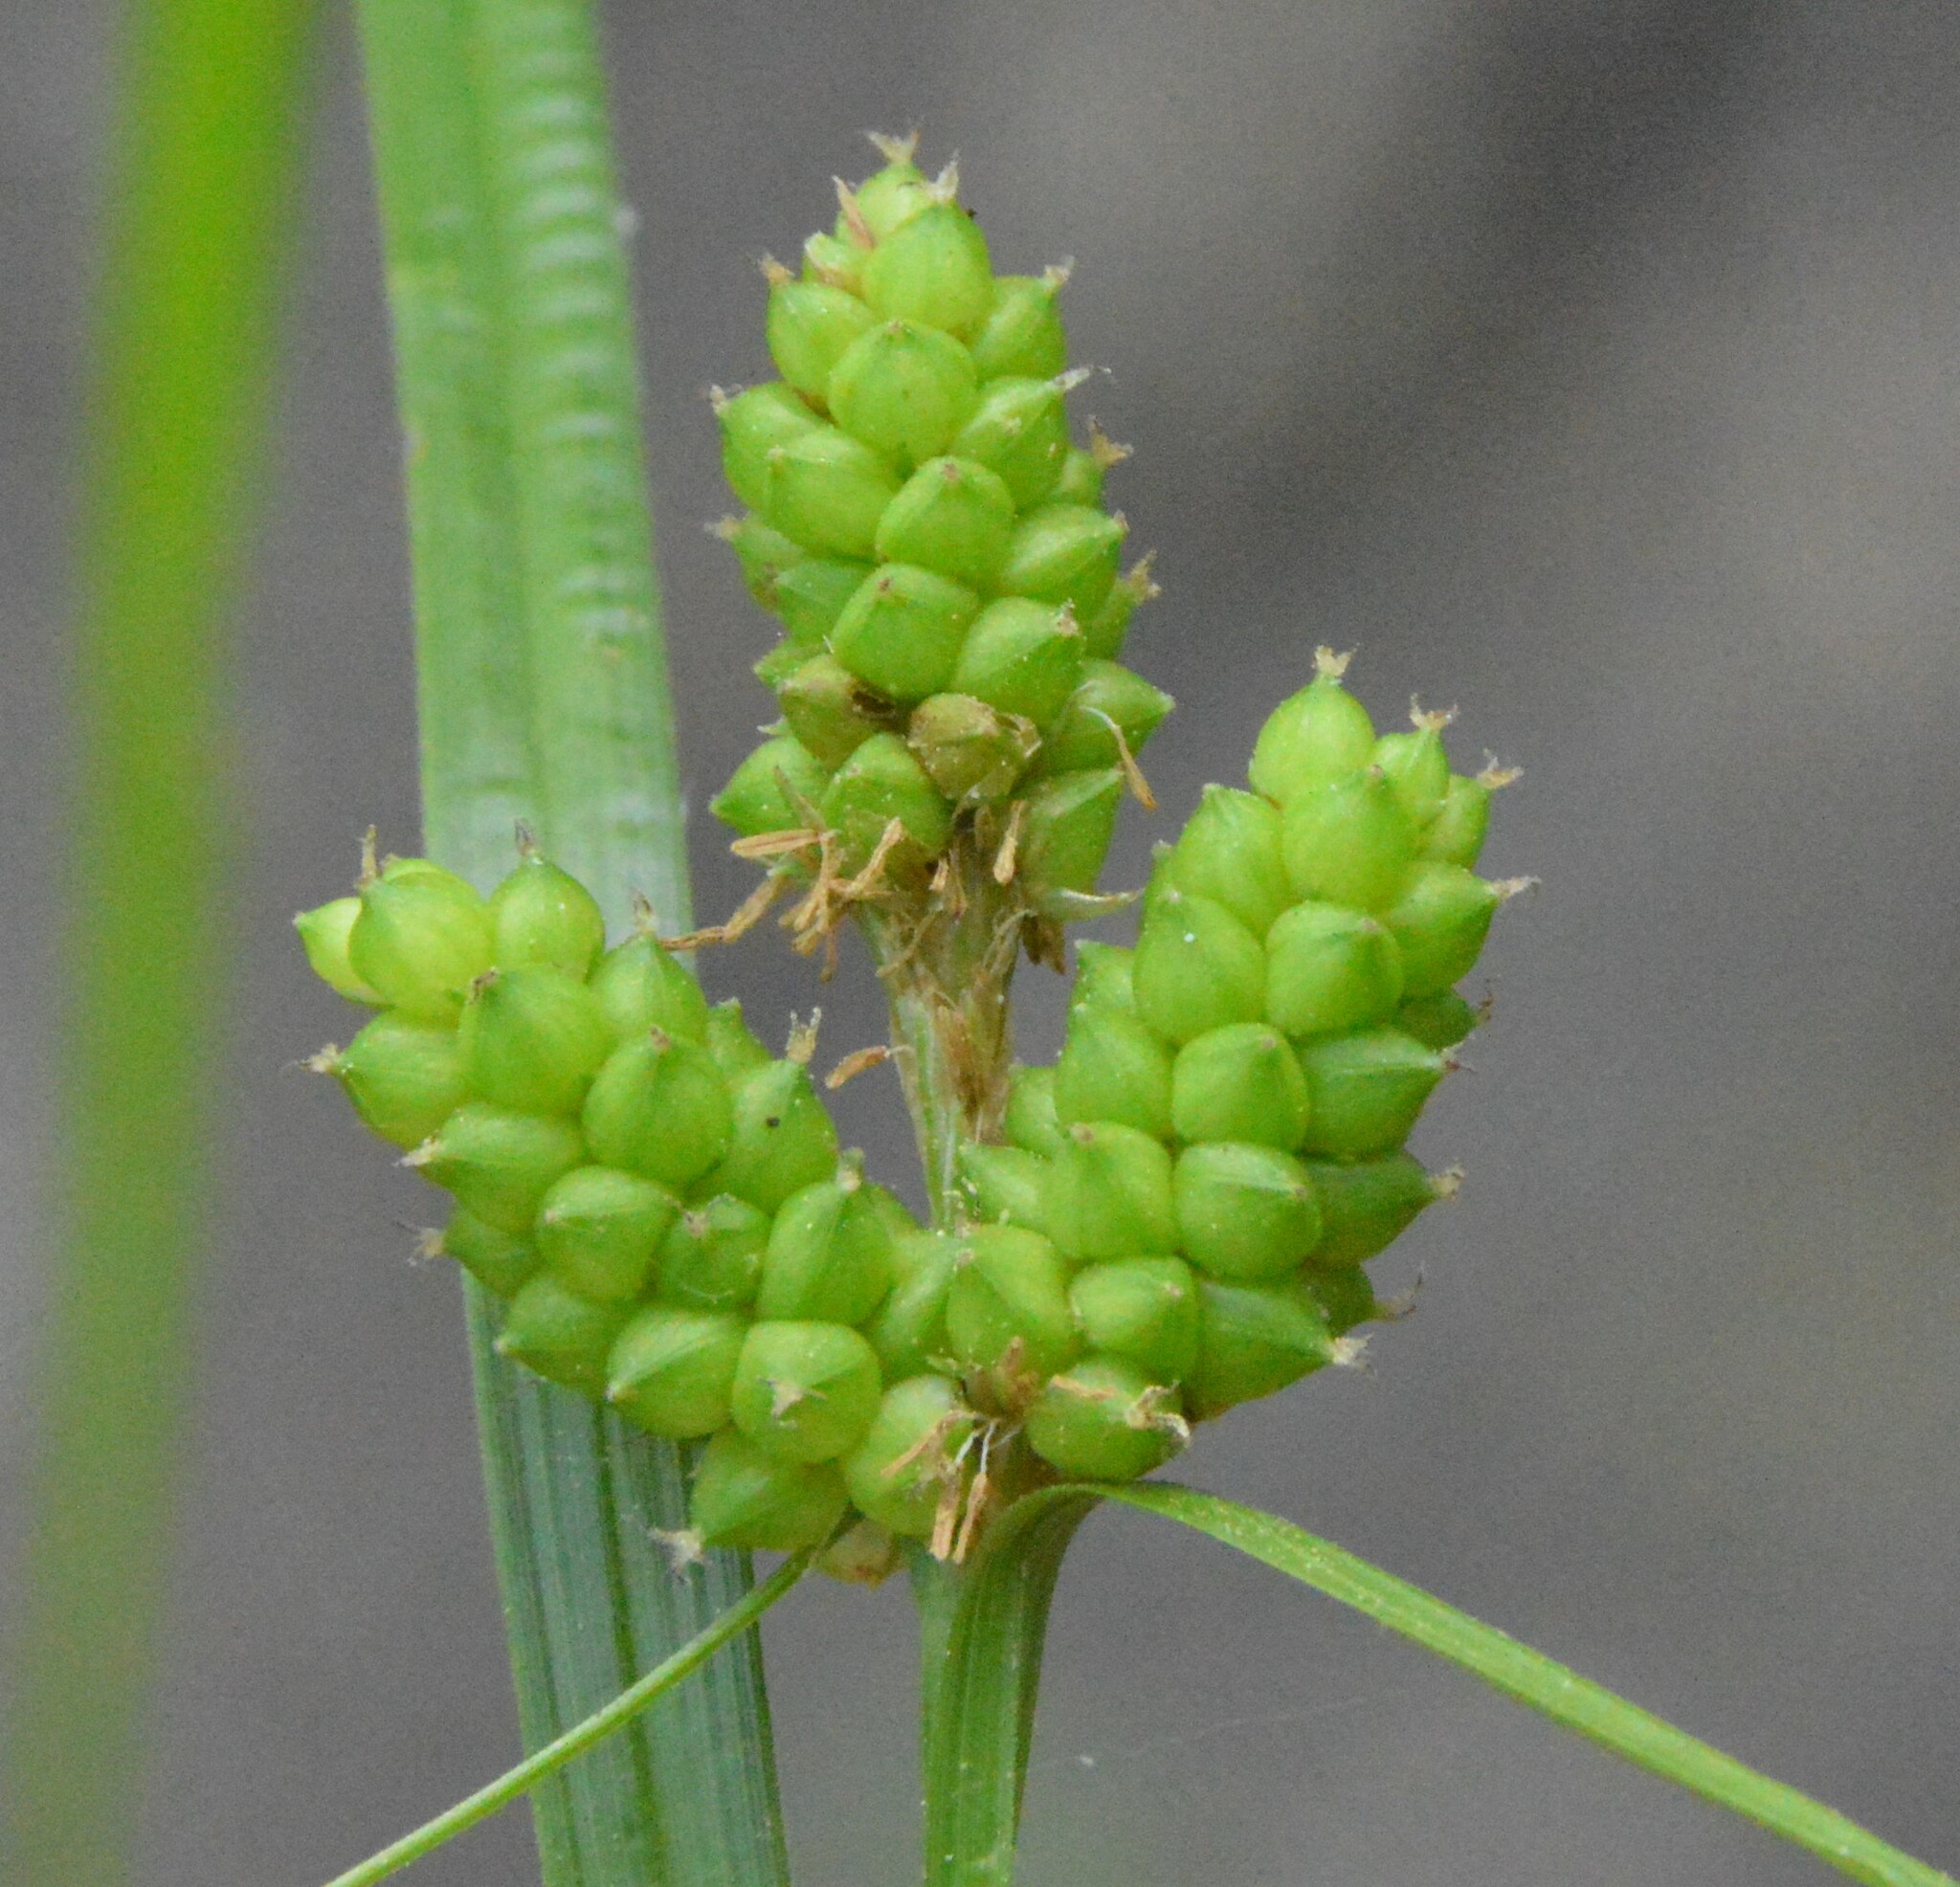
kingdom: Plantae
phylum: Tracheophyta
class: Liliopsida
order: Poales
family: Cyperaceae
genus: Carex
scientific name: Carex caroliniana
